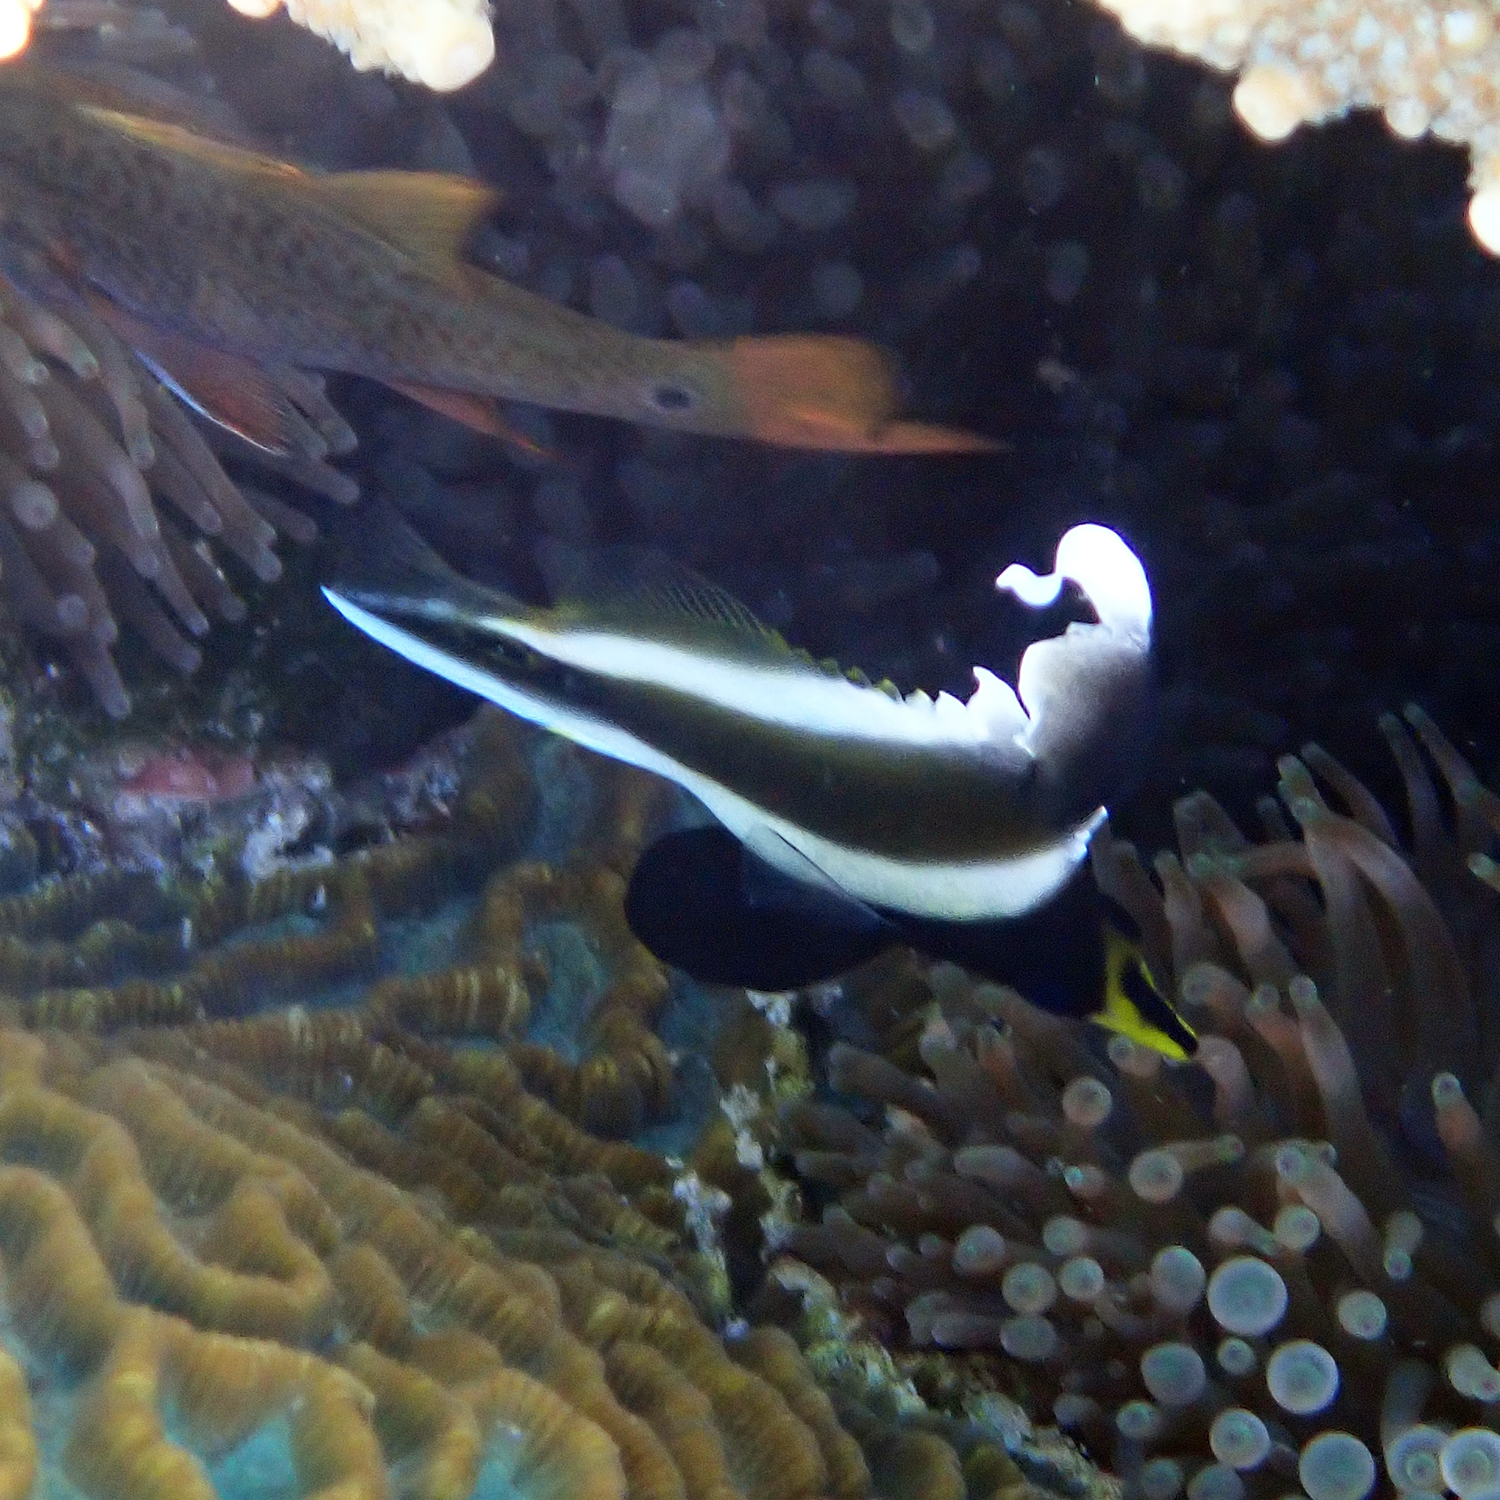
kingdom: Animalia
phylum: Chordata
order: Perciformes
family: Chaetodontidae
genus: Heniochus
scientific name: Heniochus chrysostomus
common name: Horned bannerfish
